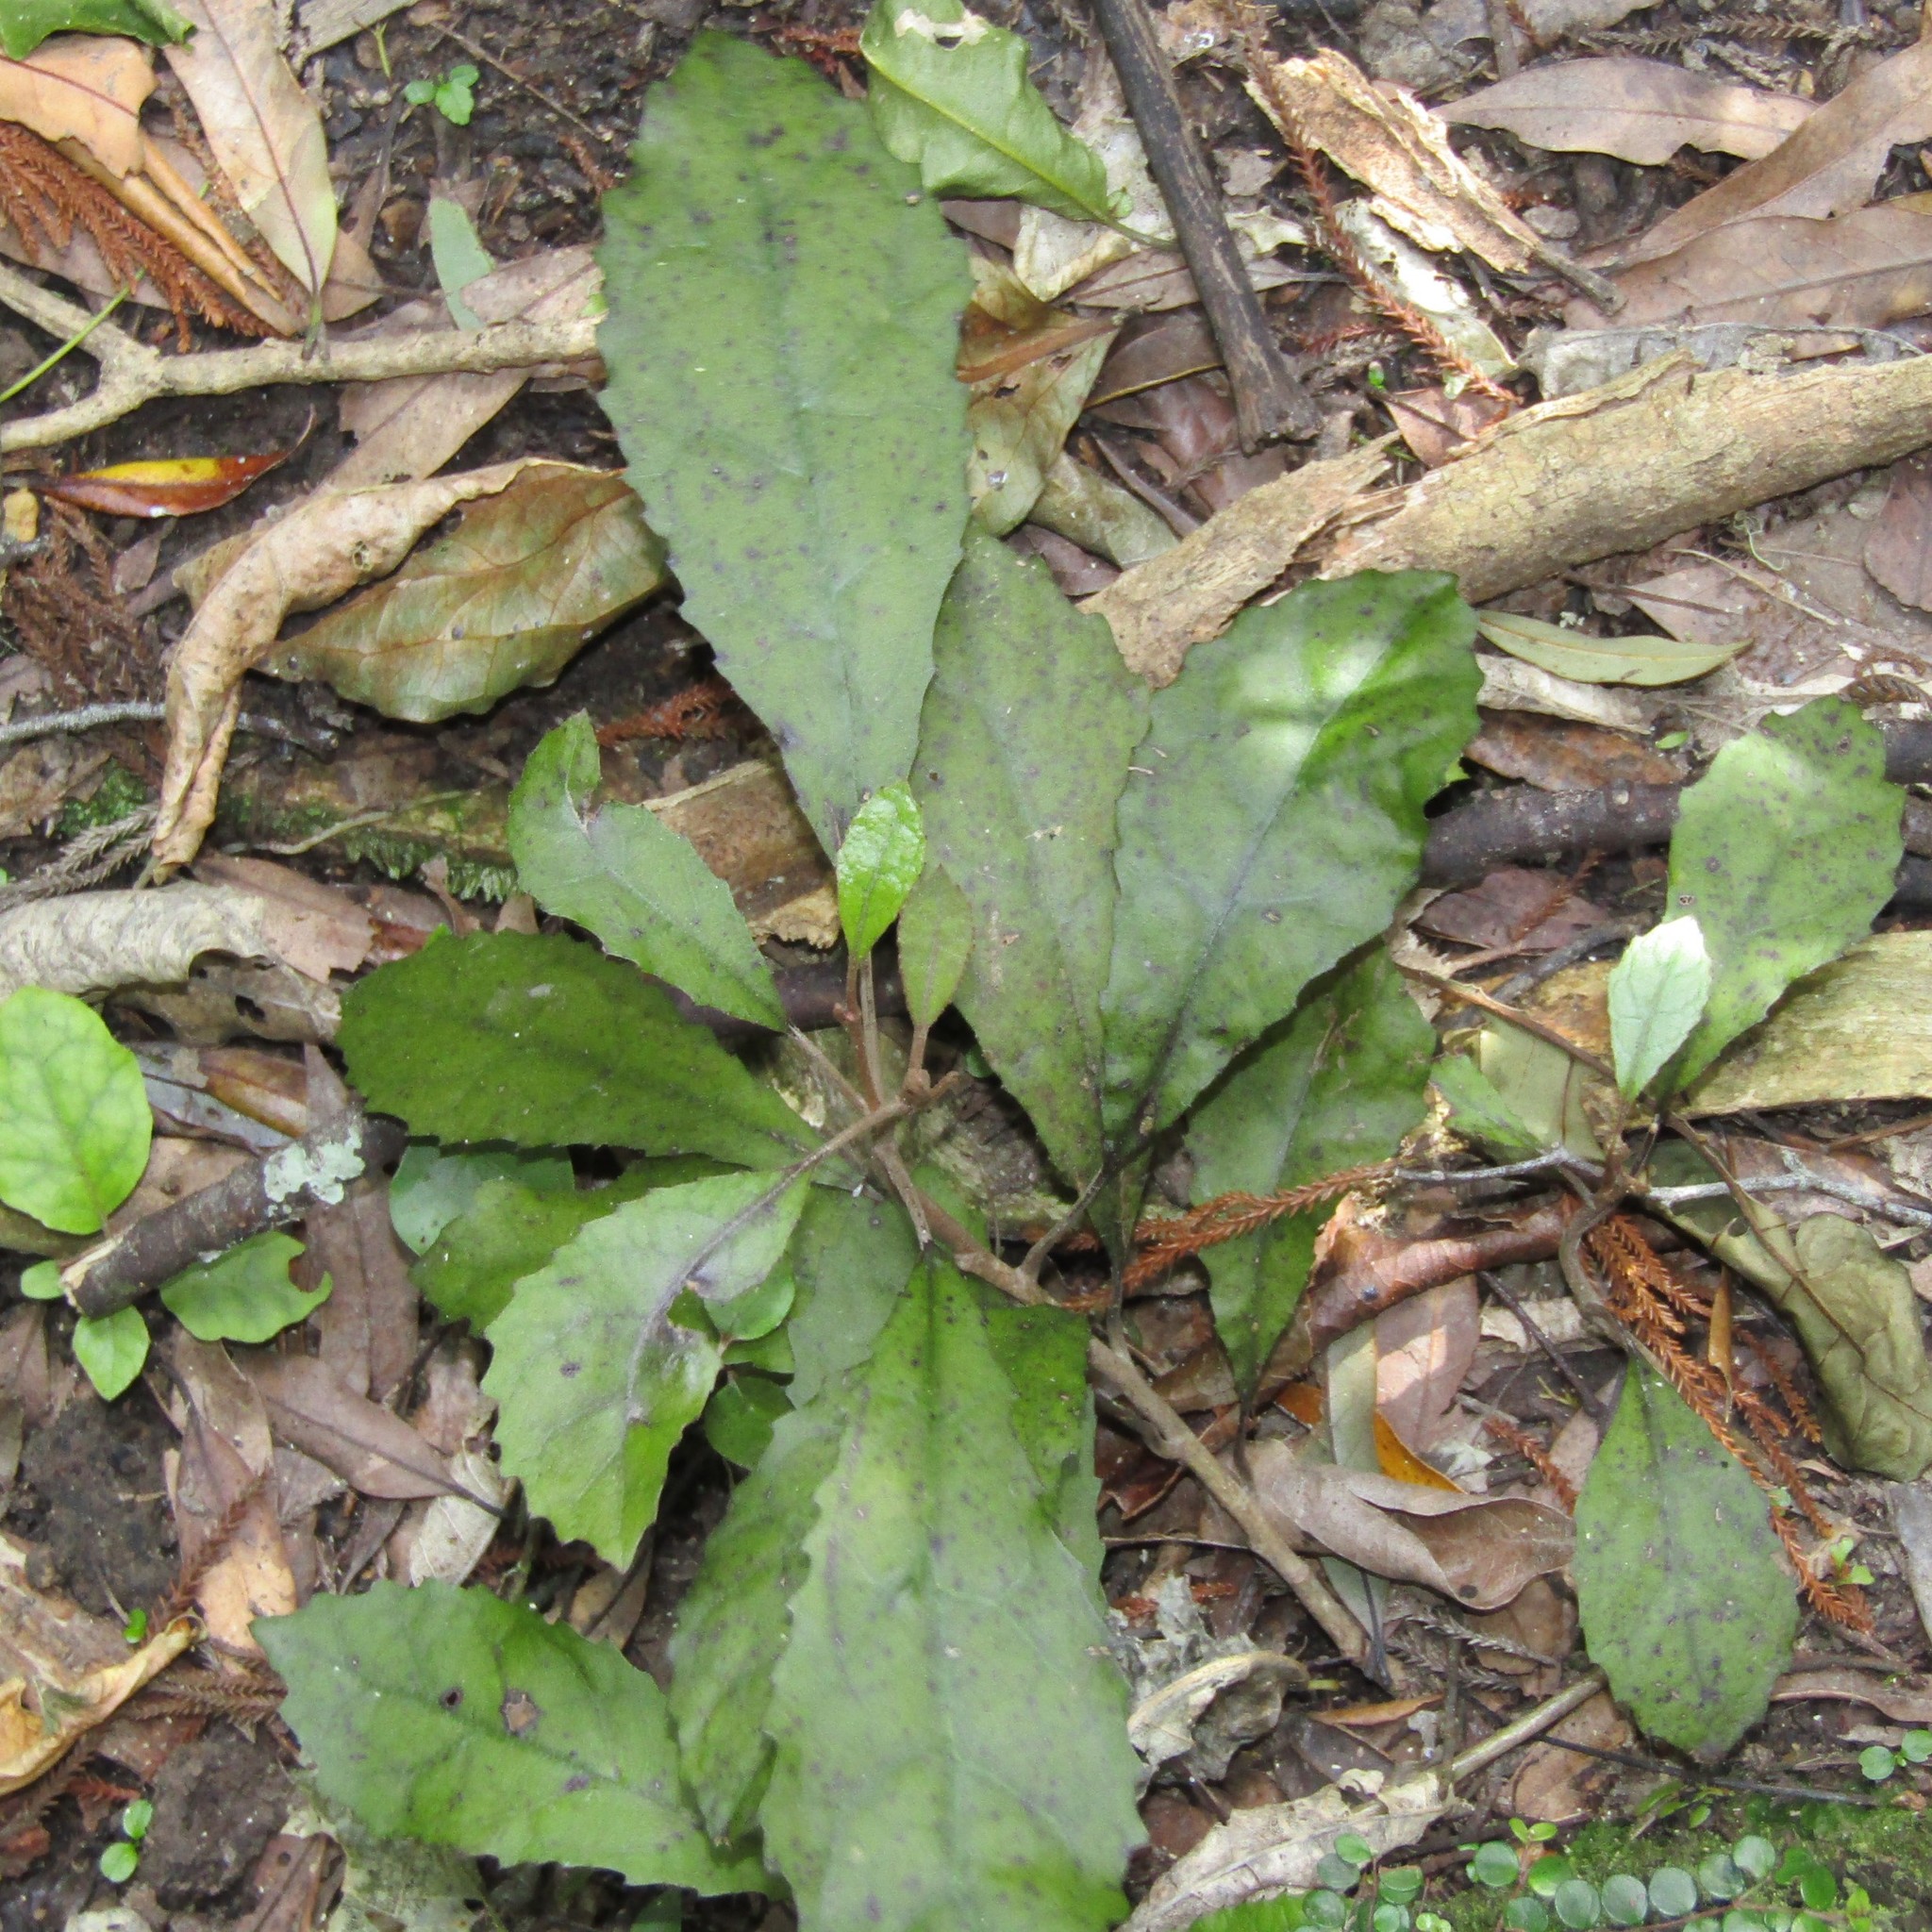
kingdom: Plantae
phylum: Tracheophyta
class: Magnoliopsida
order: Asterales
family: Asteraceae
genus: Olearia
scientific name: Olearia rani
